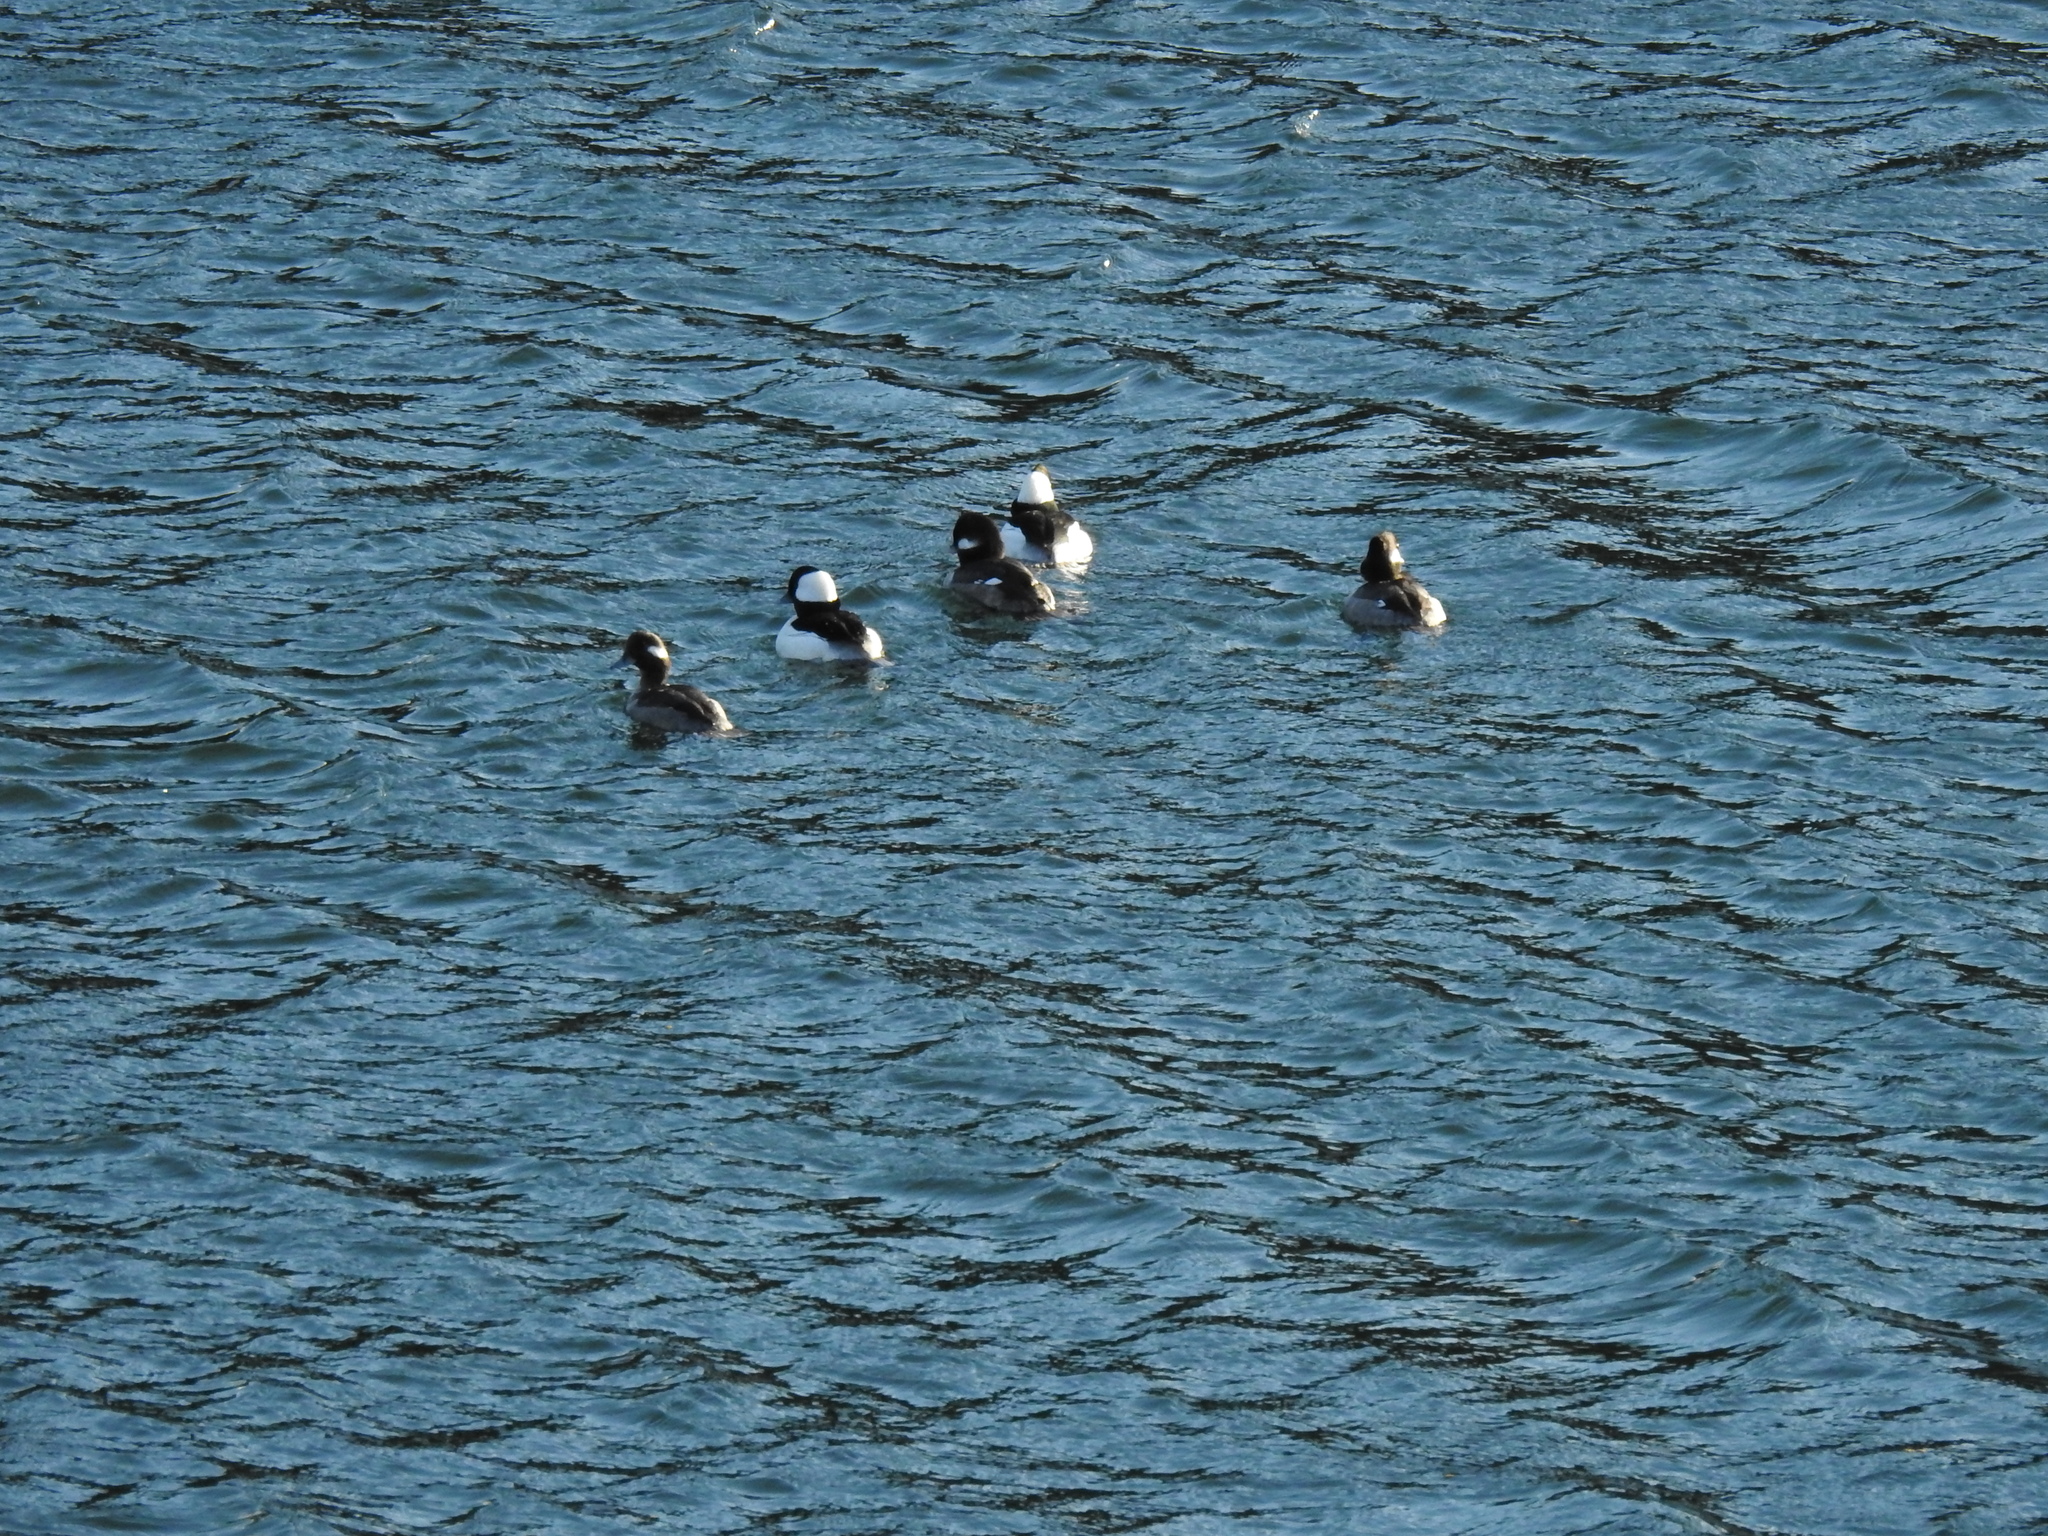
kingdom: Animalia
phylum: Chordata
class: Aves
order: Anseriformes
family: Anatidae
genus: Bucephala
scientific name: Bucephala albeola
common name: Bufflehead
